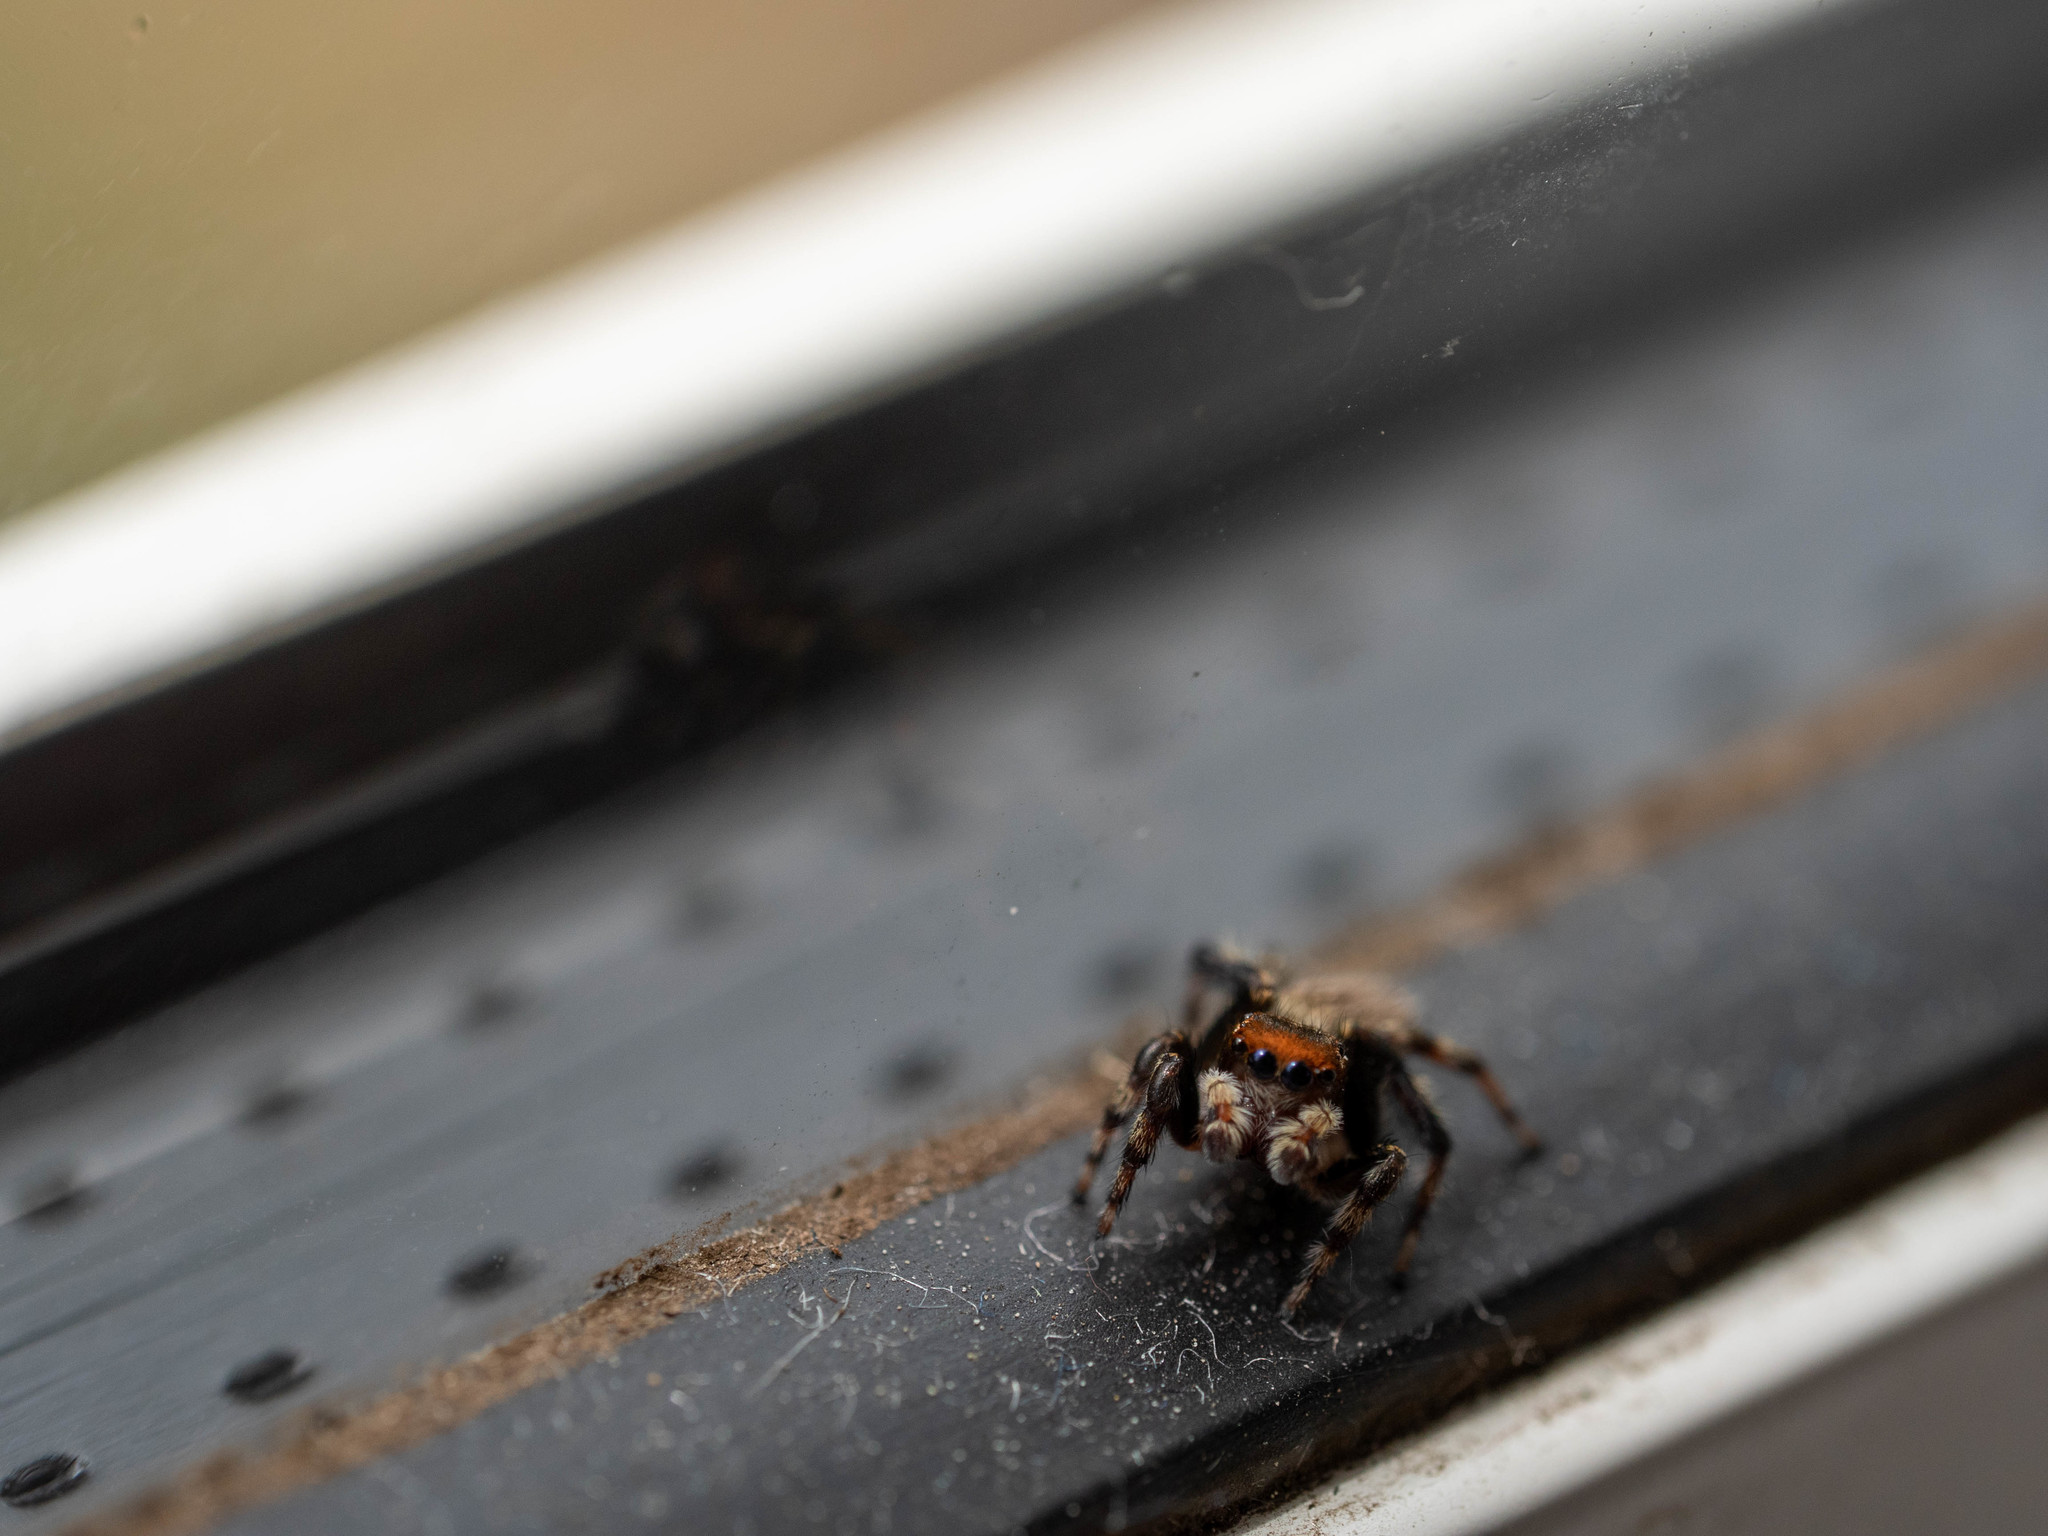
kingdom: Animalia
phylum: Arthropoda
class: Arachnida
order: Araneae
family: Salticidae
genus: Maratus
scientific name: Maratus griseus
